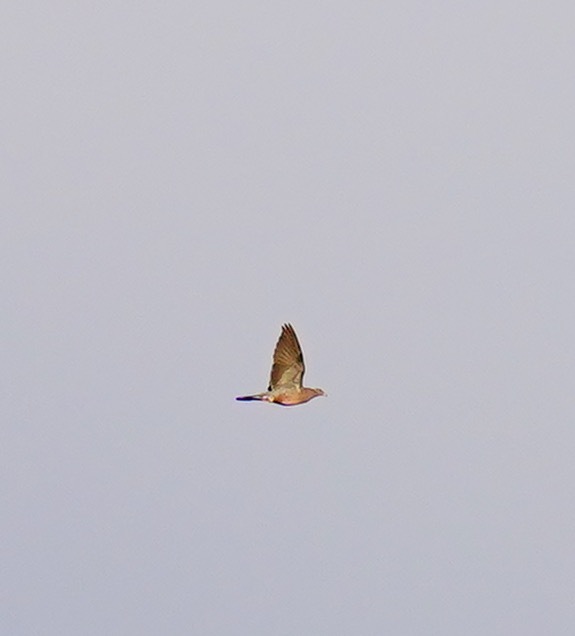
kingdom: Animalia
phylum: Chordata
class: Aves
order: Columbiformes
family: Columbidae
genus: Patagioenas
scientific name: Patagioenas fasciata
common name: Band-tailed pigeon
